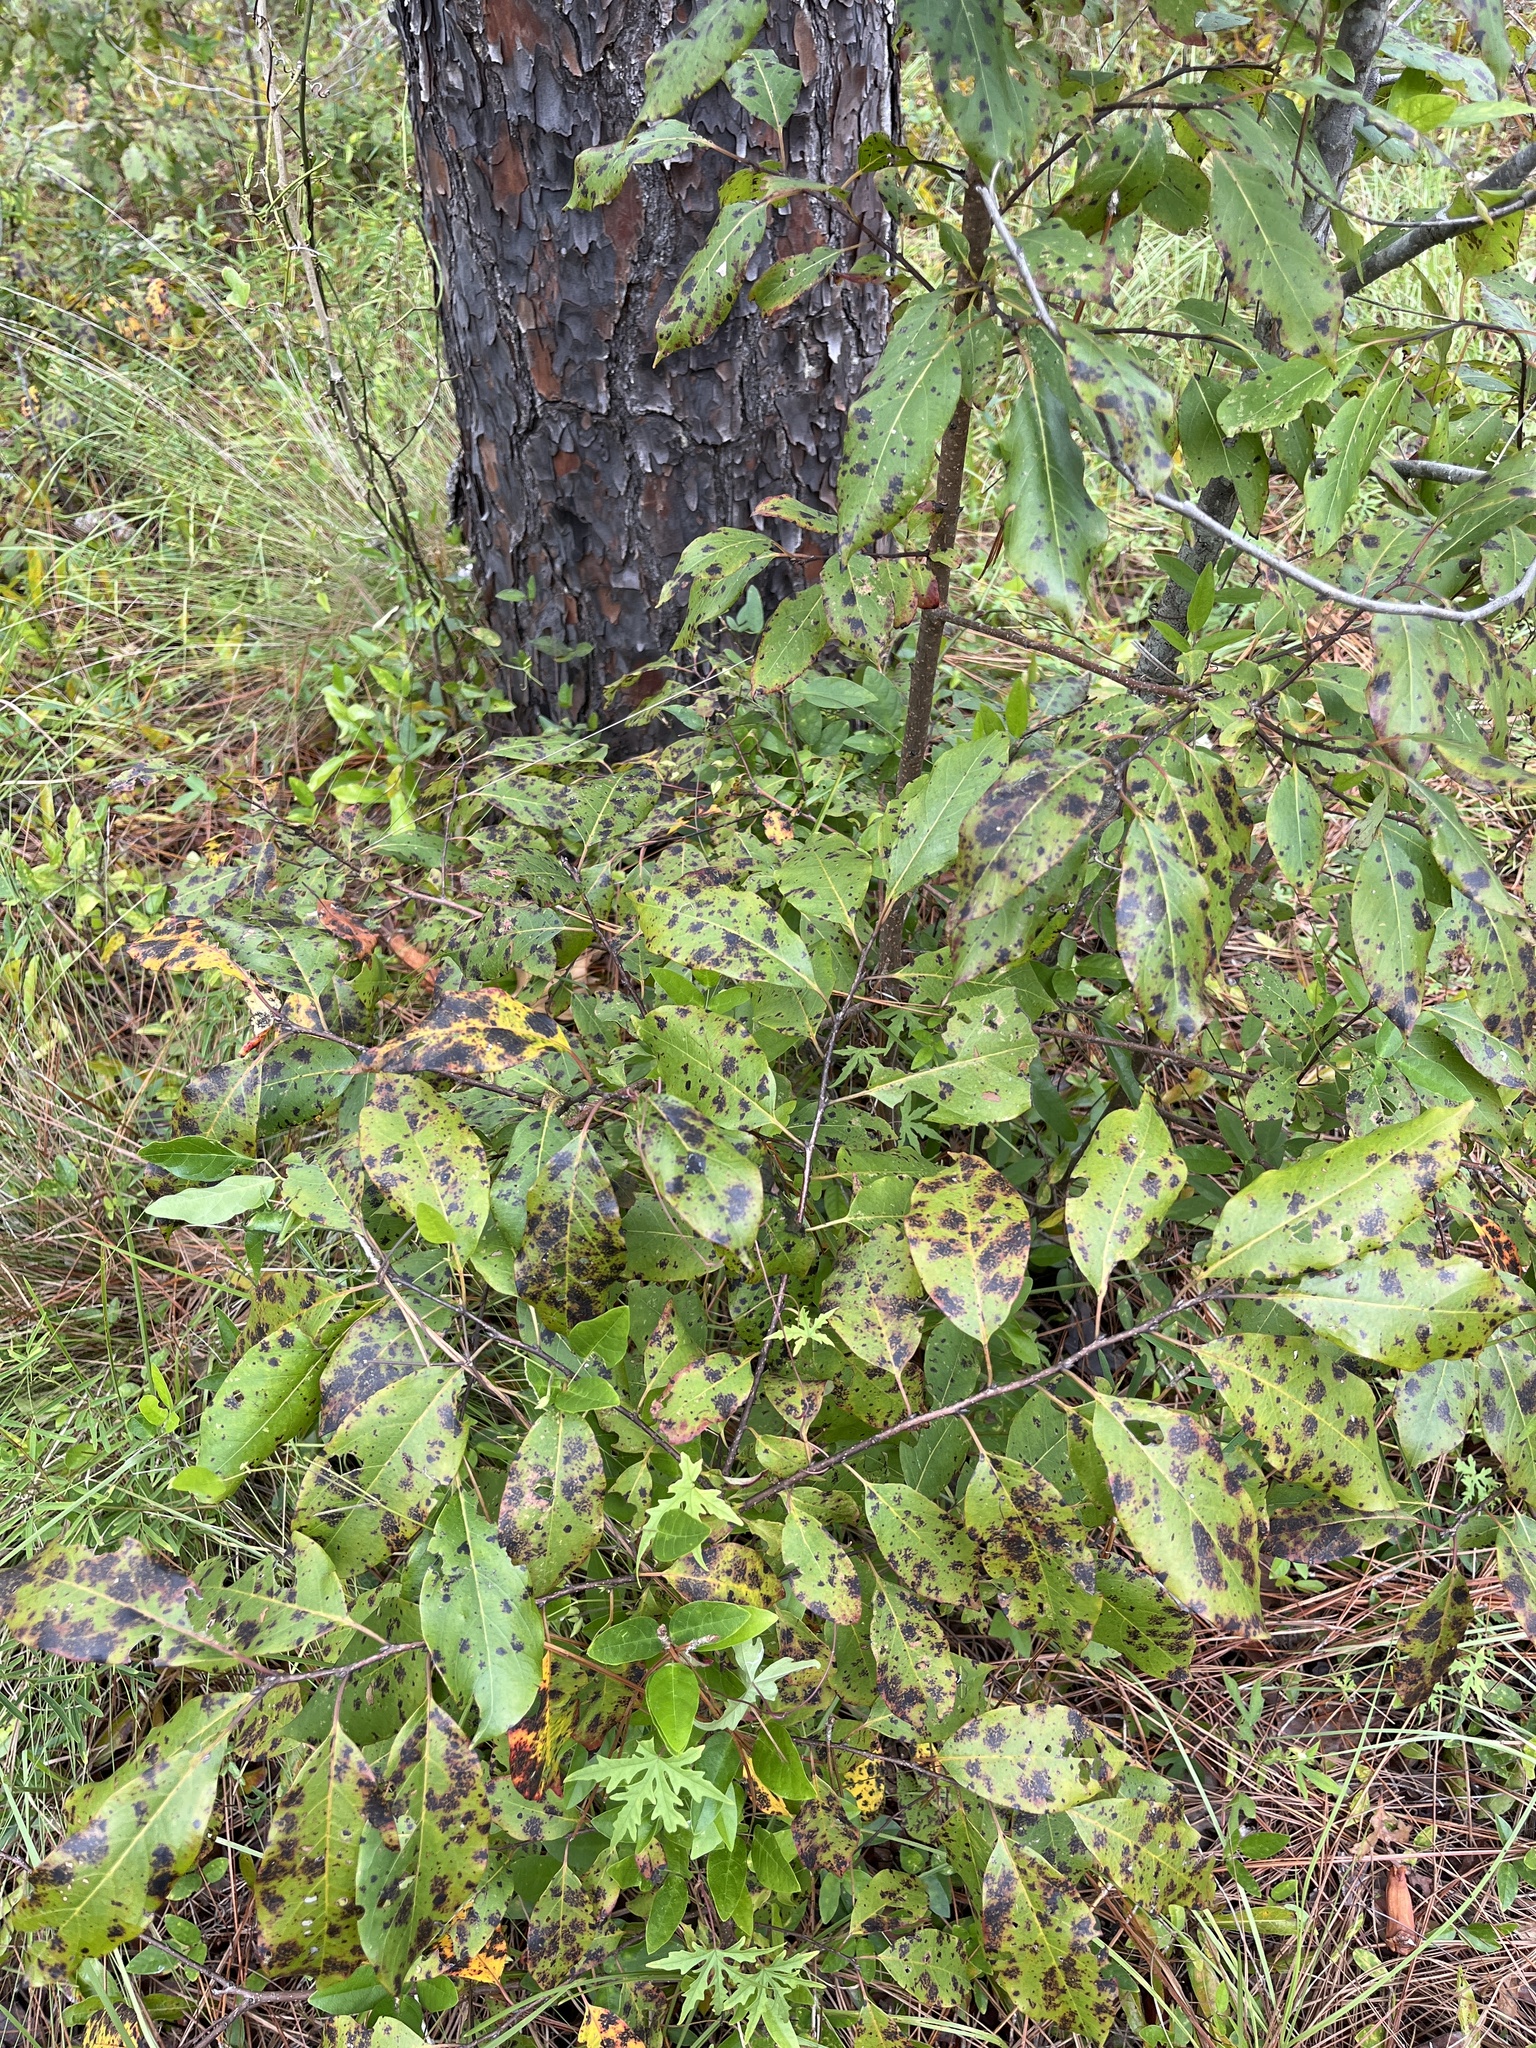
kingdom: Plantae
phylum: Tracheophyta
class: Magnoliopsida
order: Ericales
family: Ebenaceae
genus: Diospyros
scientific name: Diospyros virginiana
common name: Persimmon
